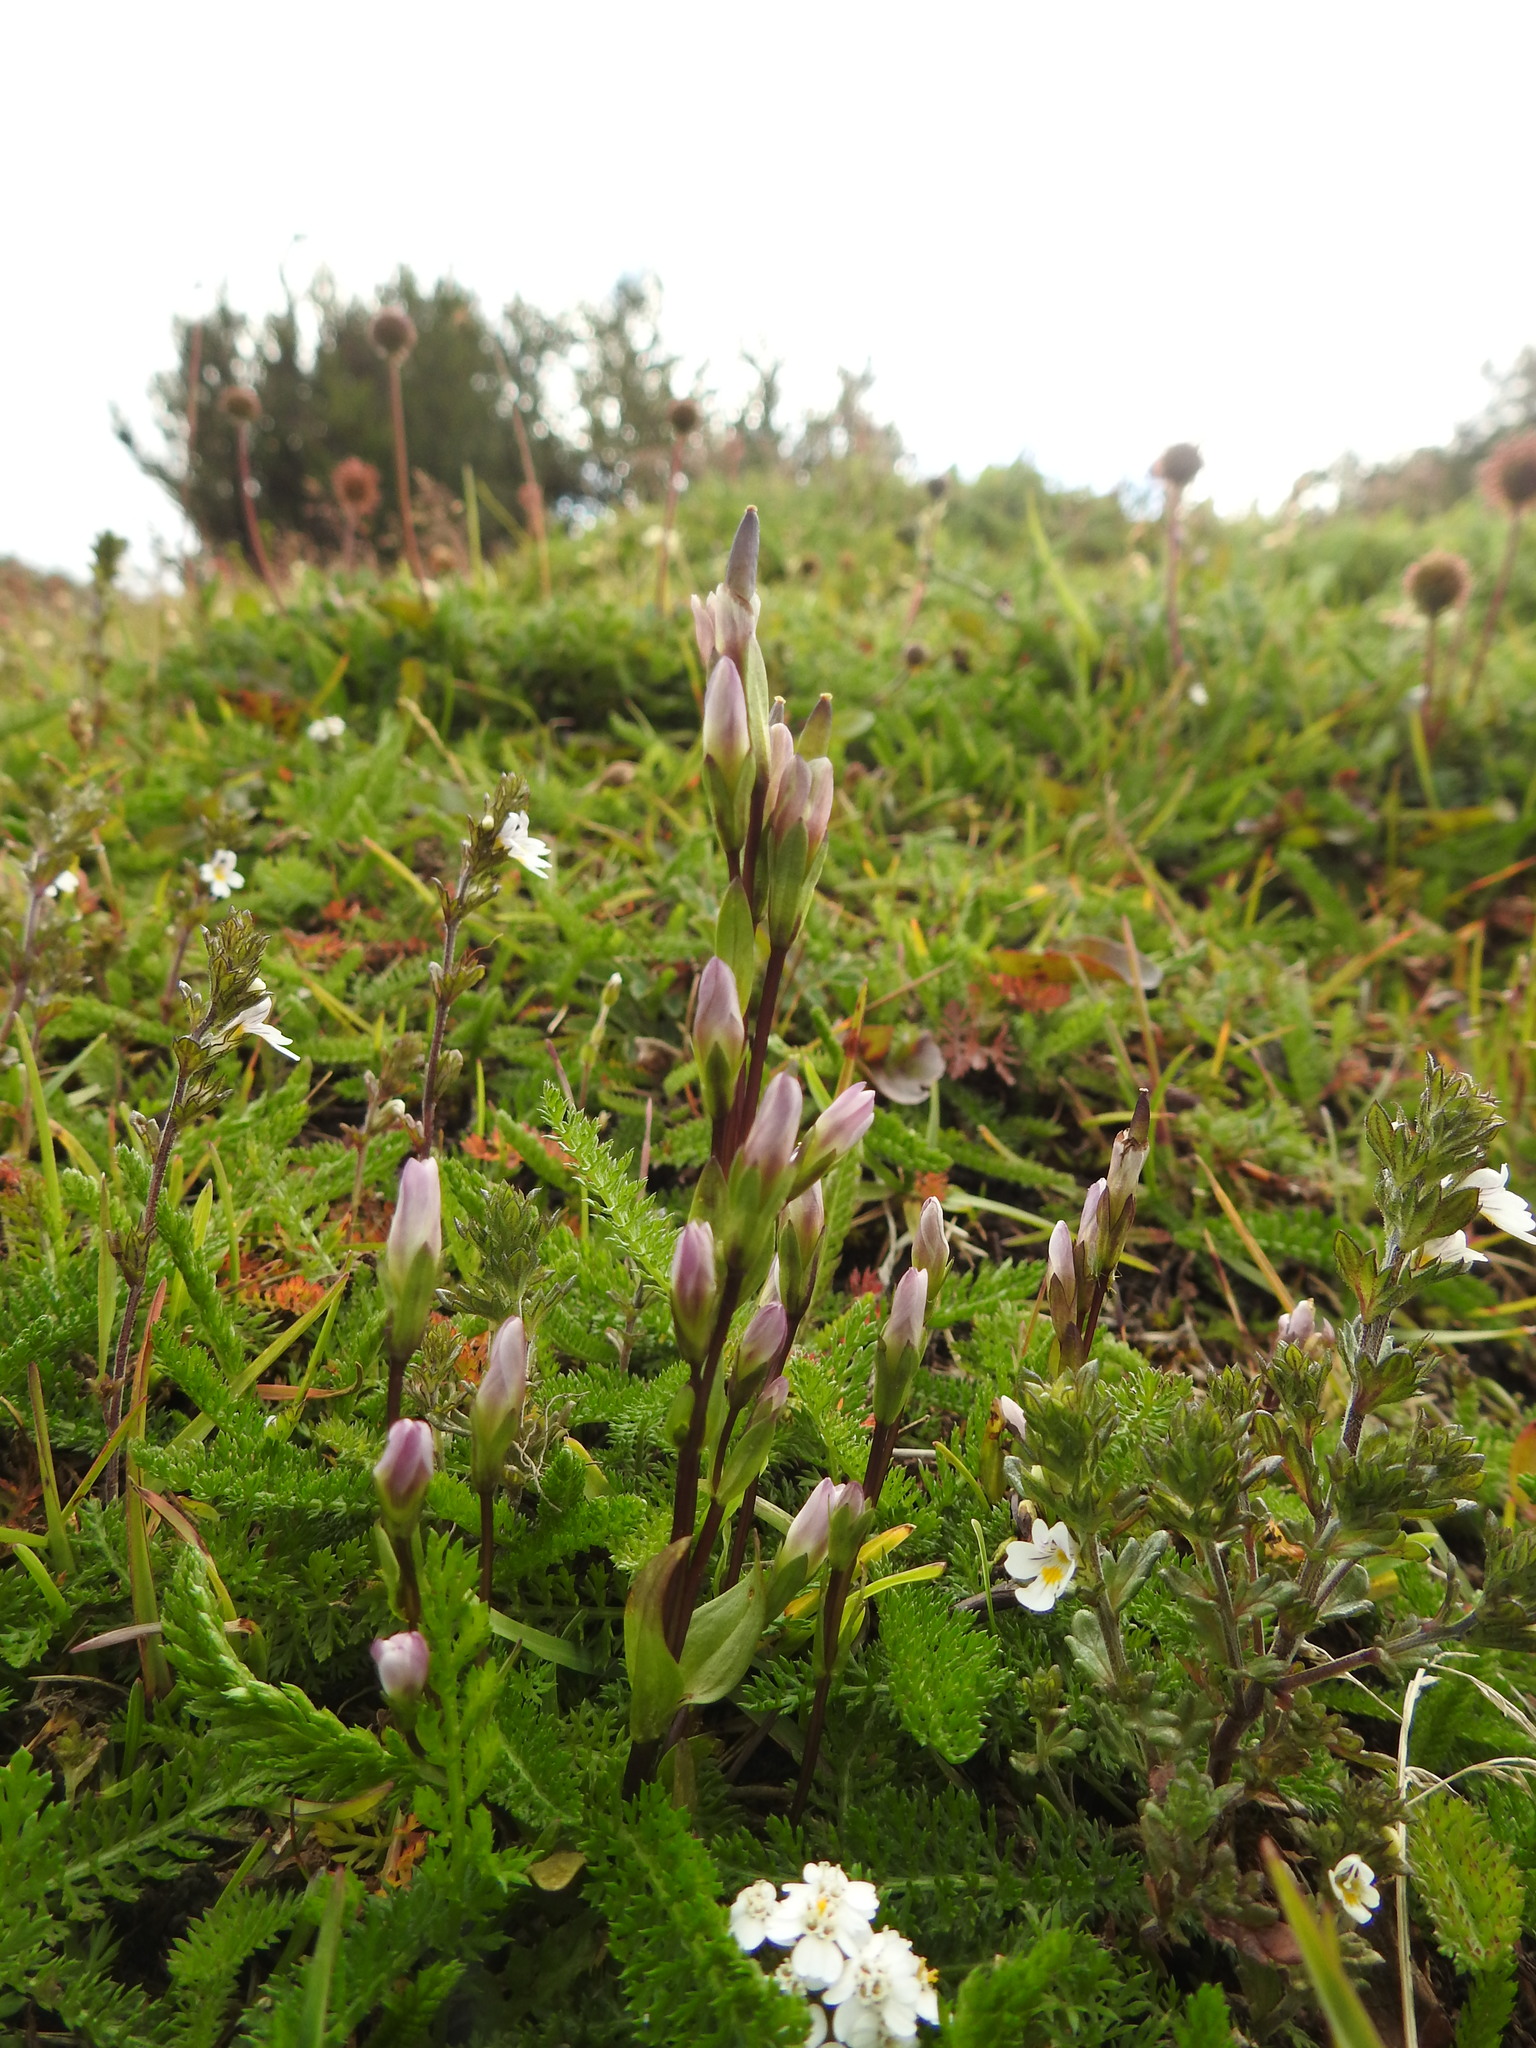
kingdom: Plantae
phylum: Tracheophyta
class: Magnoliopsida
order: Gentianales
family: Gentianaceae
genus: Gentianella
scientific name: Gentianella magellanica
